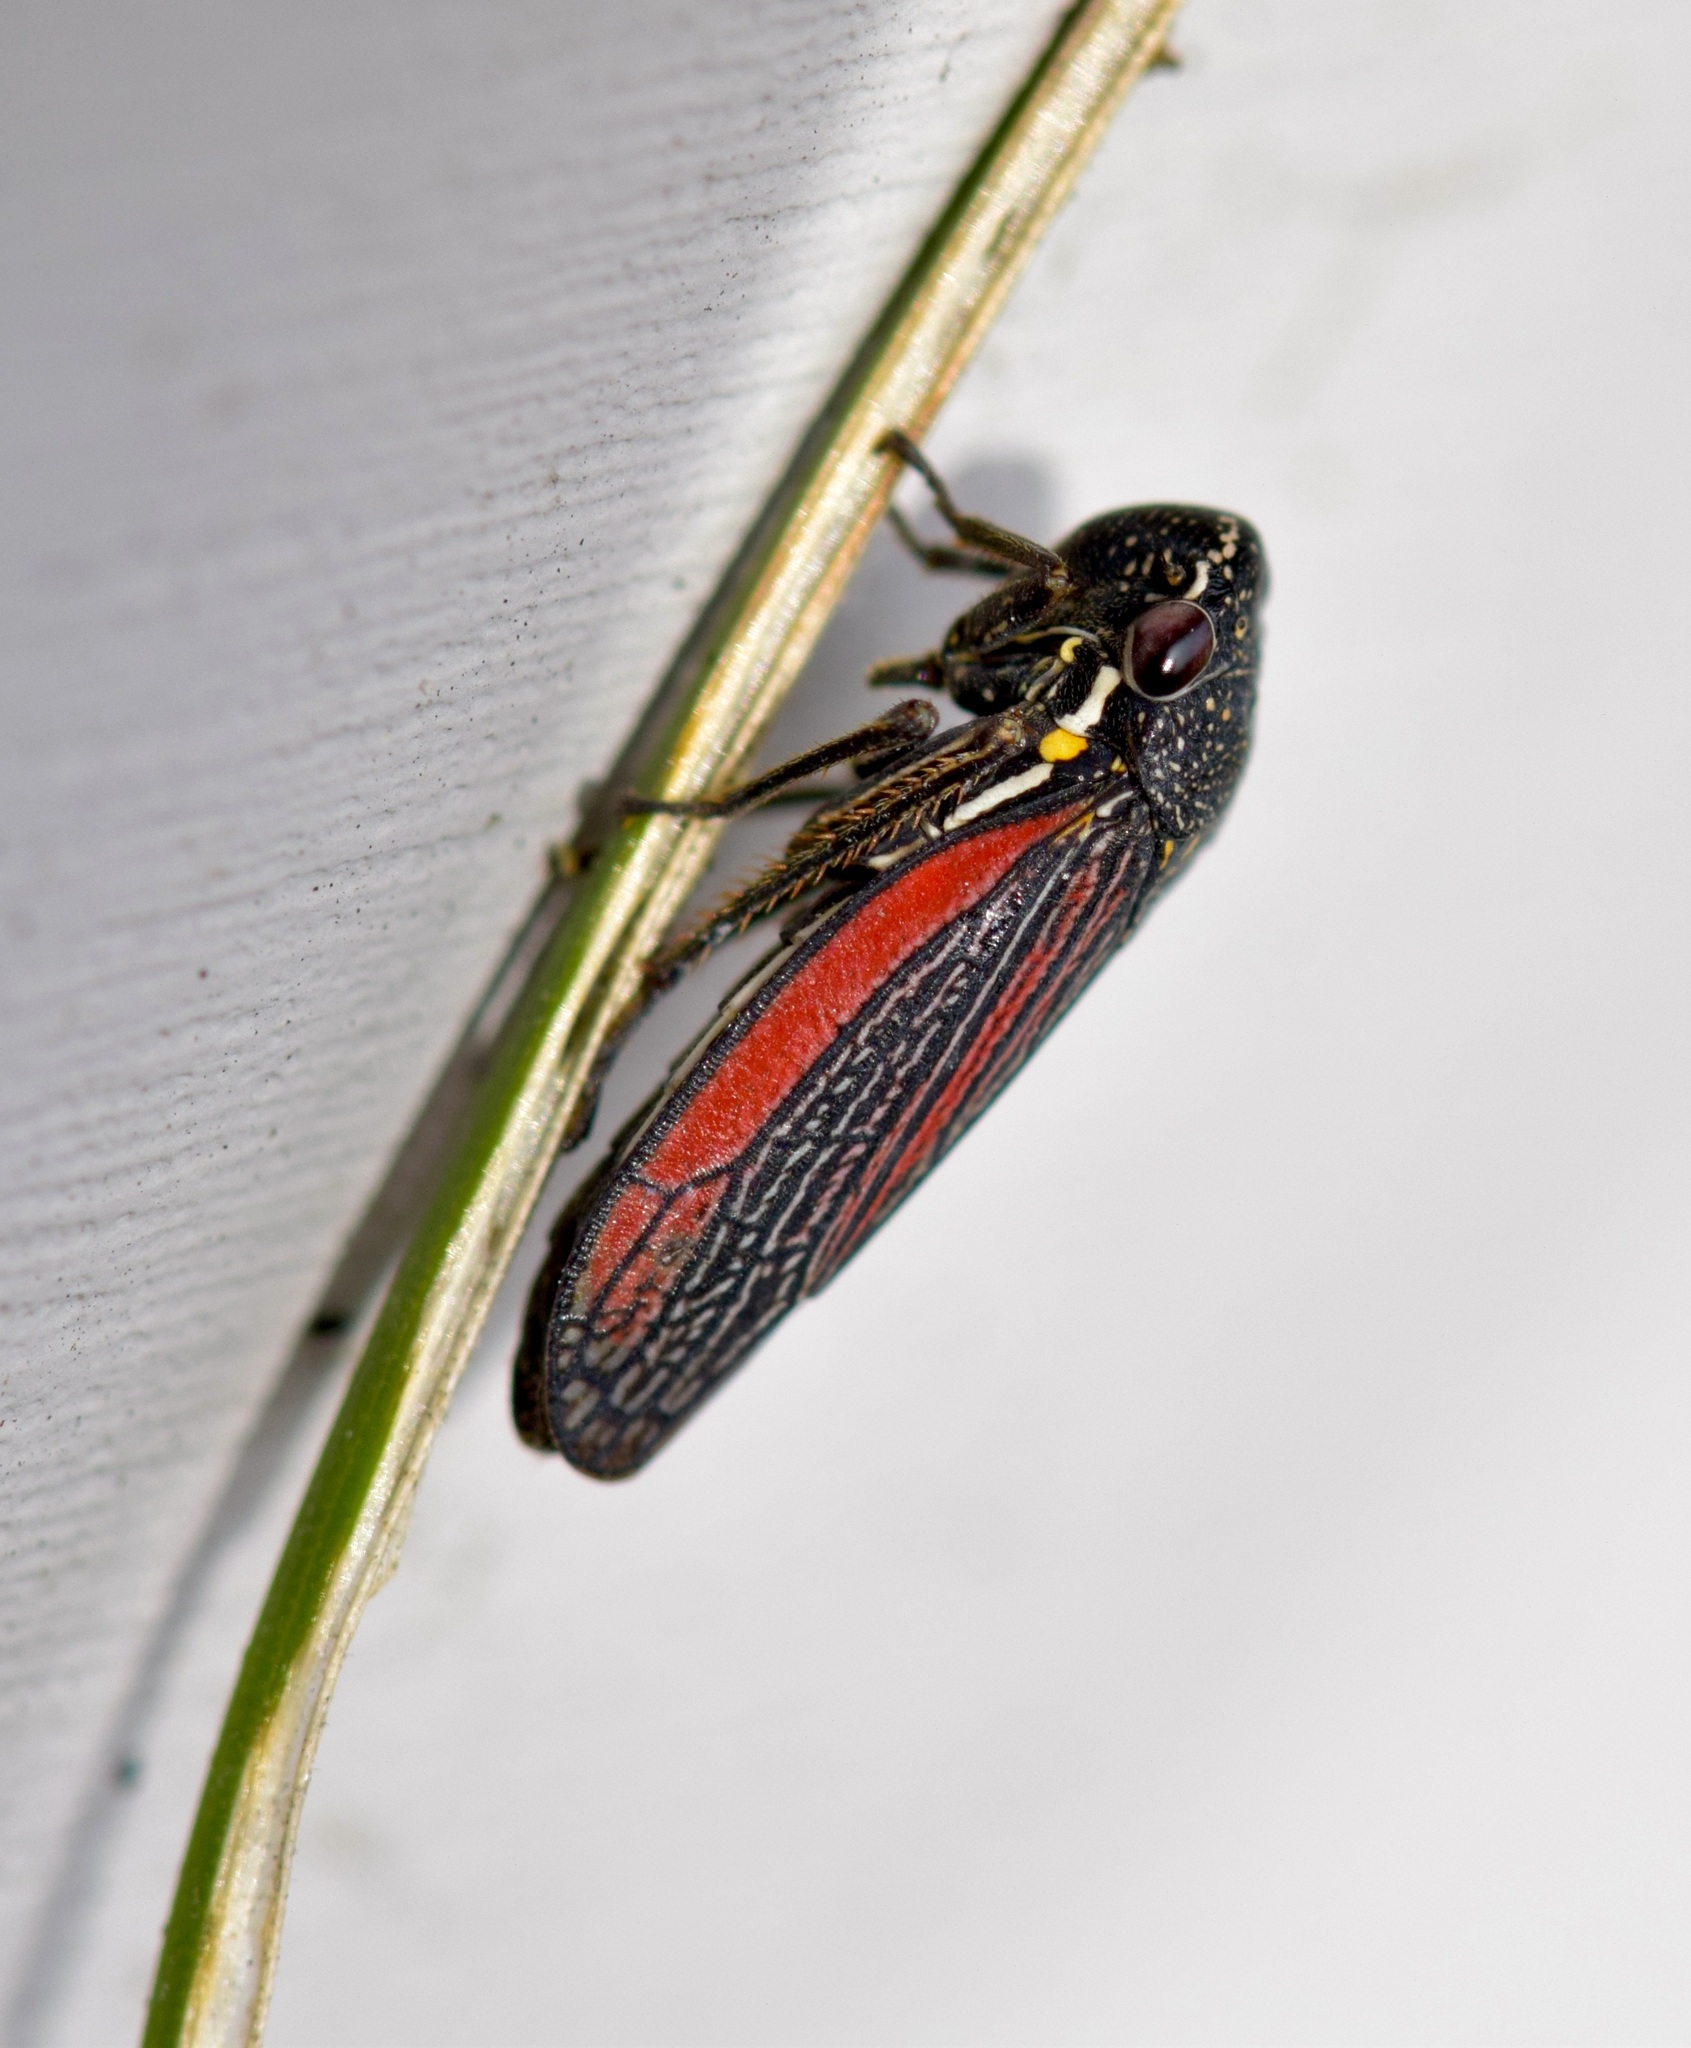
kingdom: Animalia
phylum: Arthropoda
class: Insecta
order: Hemiptera
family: Cicadellidae
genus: Cuerna
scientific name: Cuerna striata
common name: Striped leafhopper
